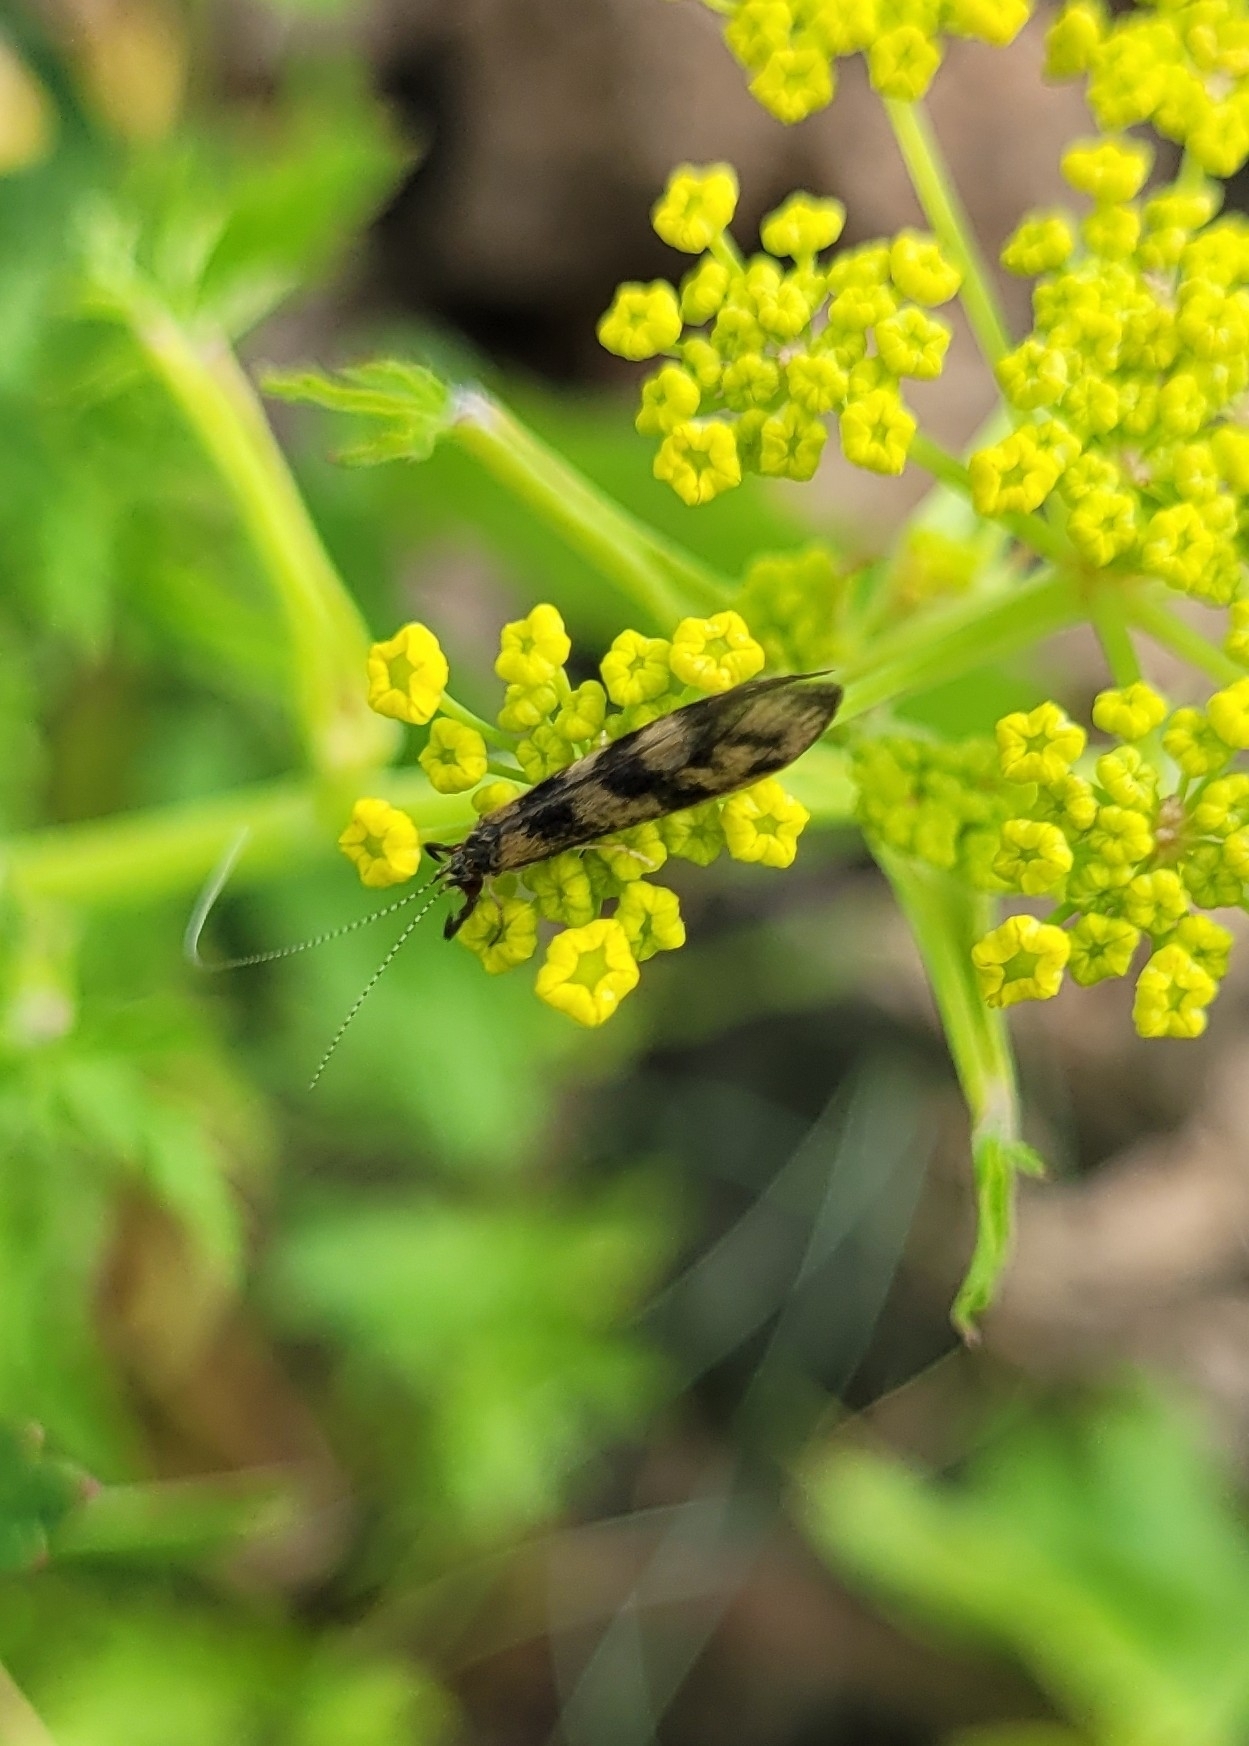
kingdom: Animalia
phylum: Arthropoda
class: Insecta
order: Trichoptera
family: Leptoceridae
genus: Mystacides
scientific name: Mystacides longicornis
